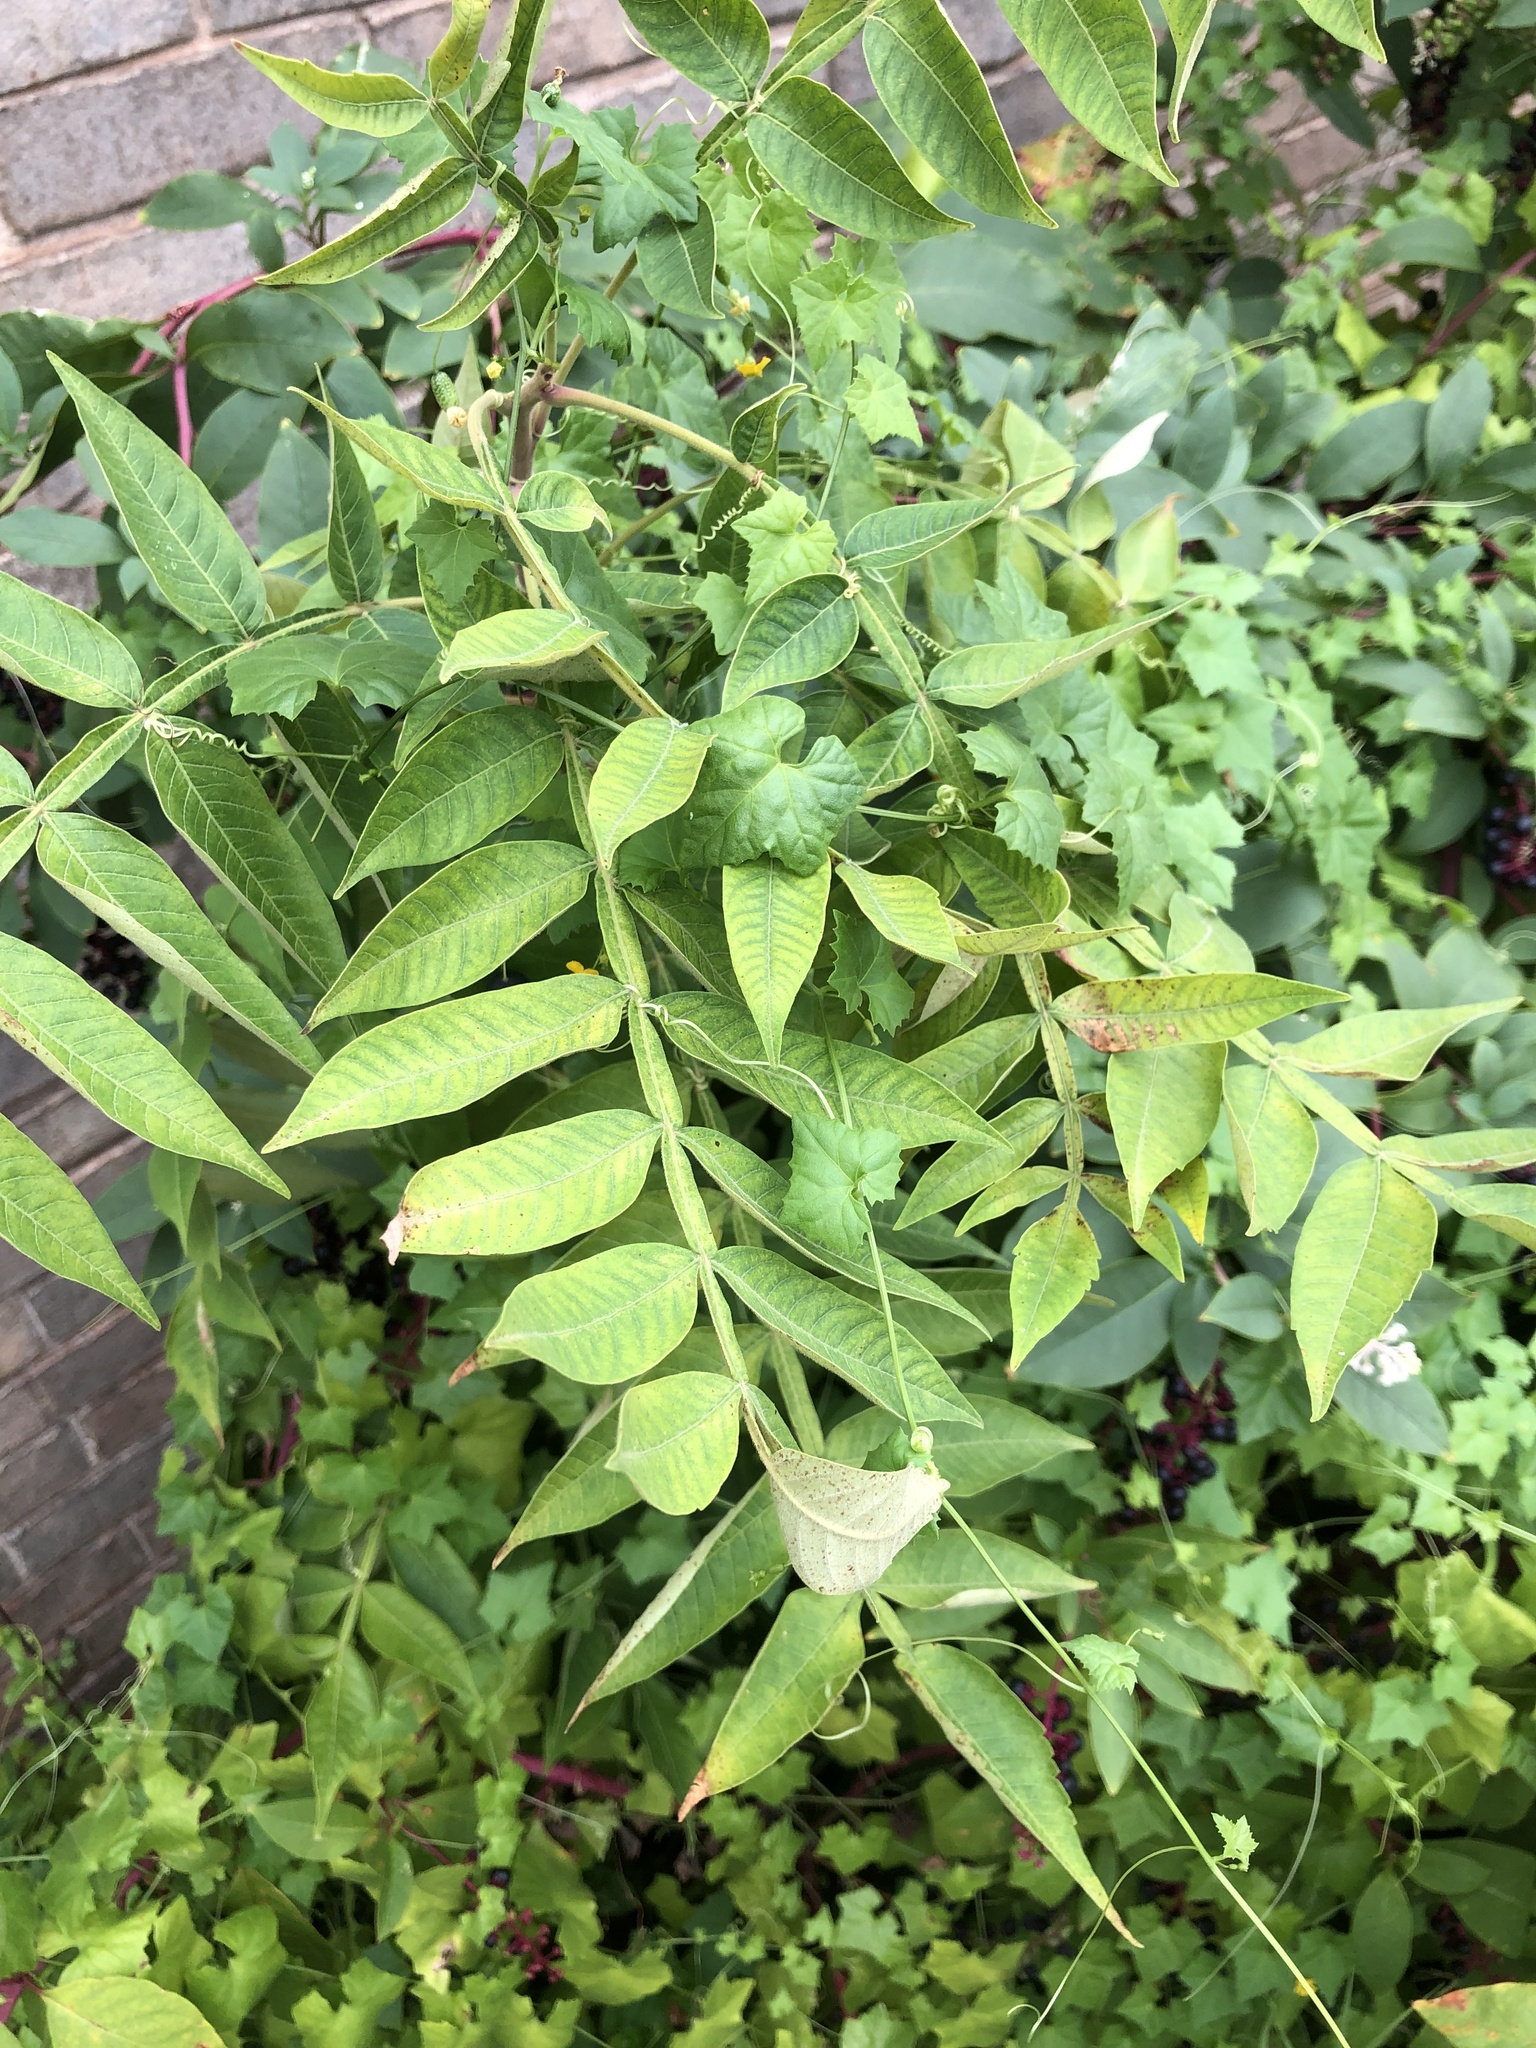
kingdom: Plantae
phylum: Tracheophyta
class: Magnoliopsida
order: Sapindales
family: Anacardiaceae
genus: Rhus
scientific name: Rhus copallina
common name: Shining sumac
